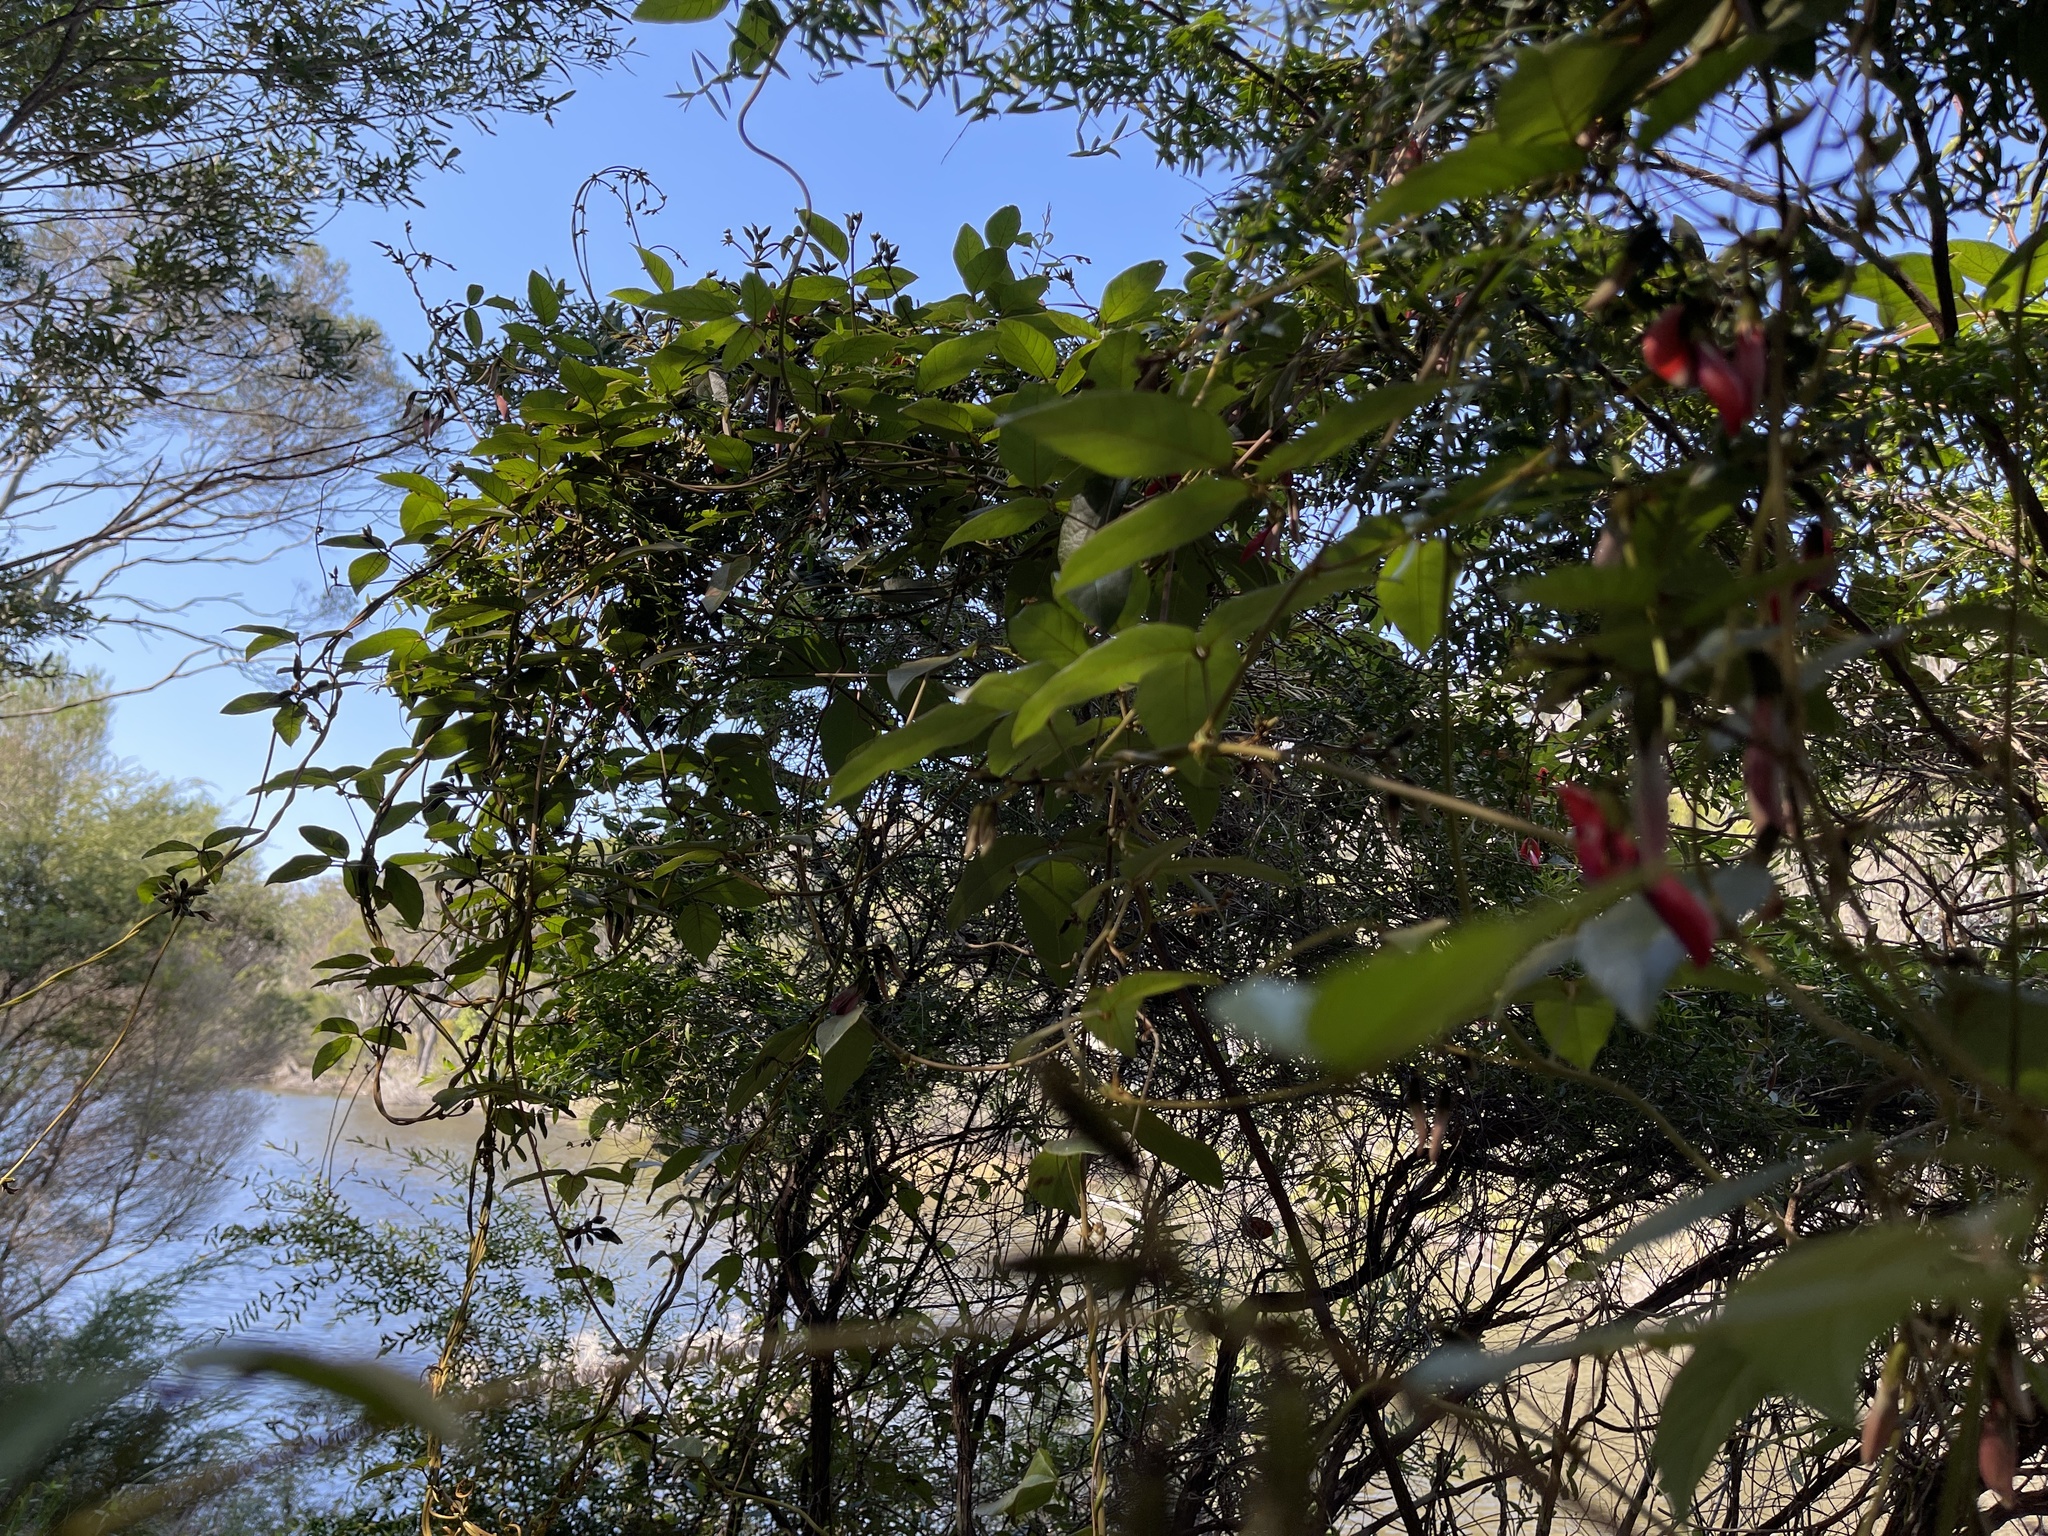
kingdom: Plantae
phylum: Tracheophyta
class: Magnoliopsida
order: Fabales
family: Fabaceae
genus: Kennedia
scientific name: Kennedia rubicunda
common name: Red kennedy-pea
